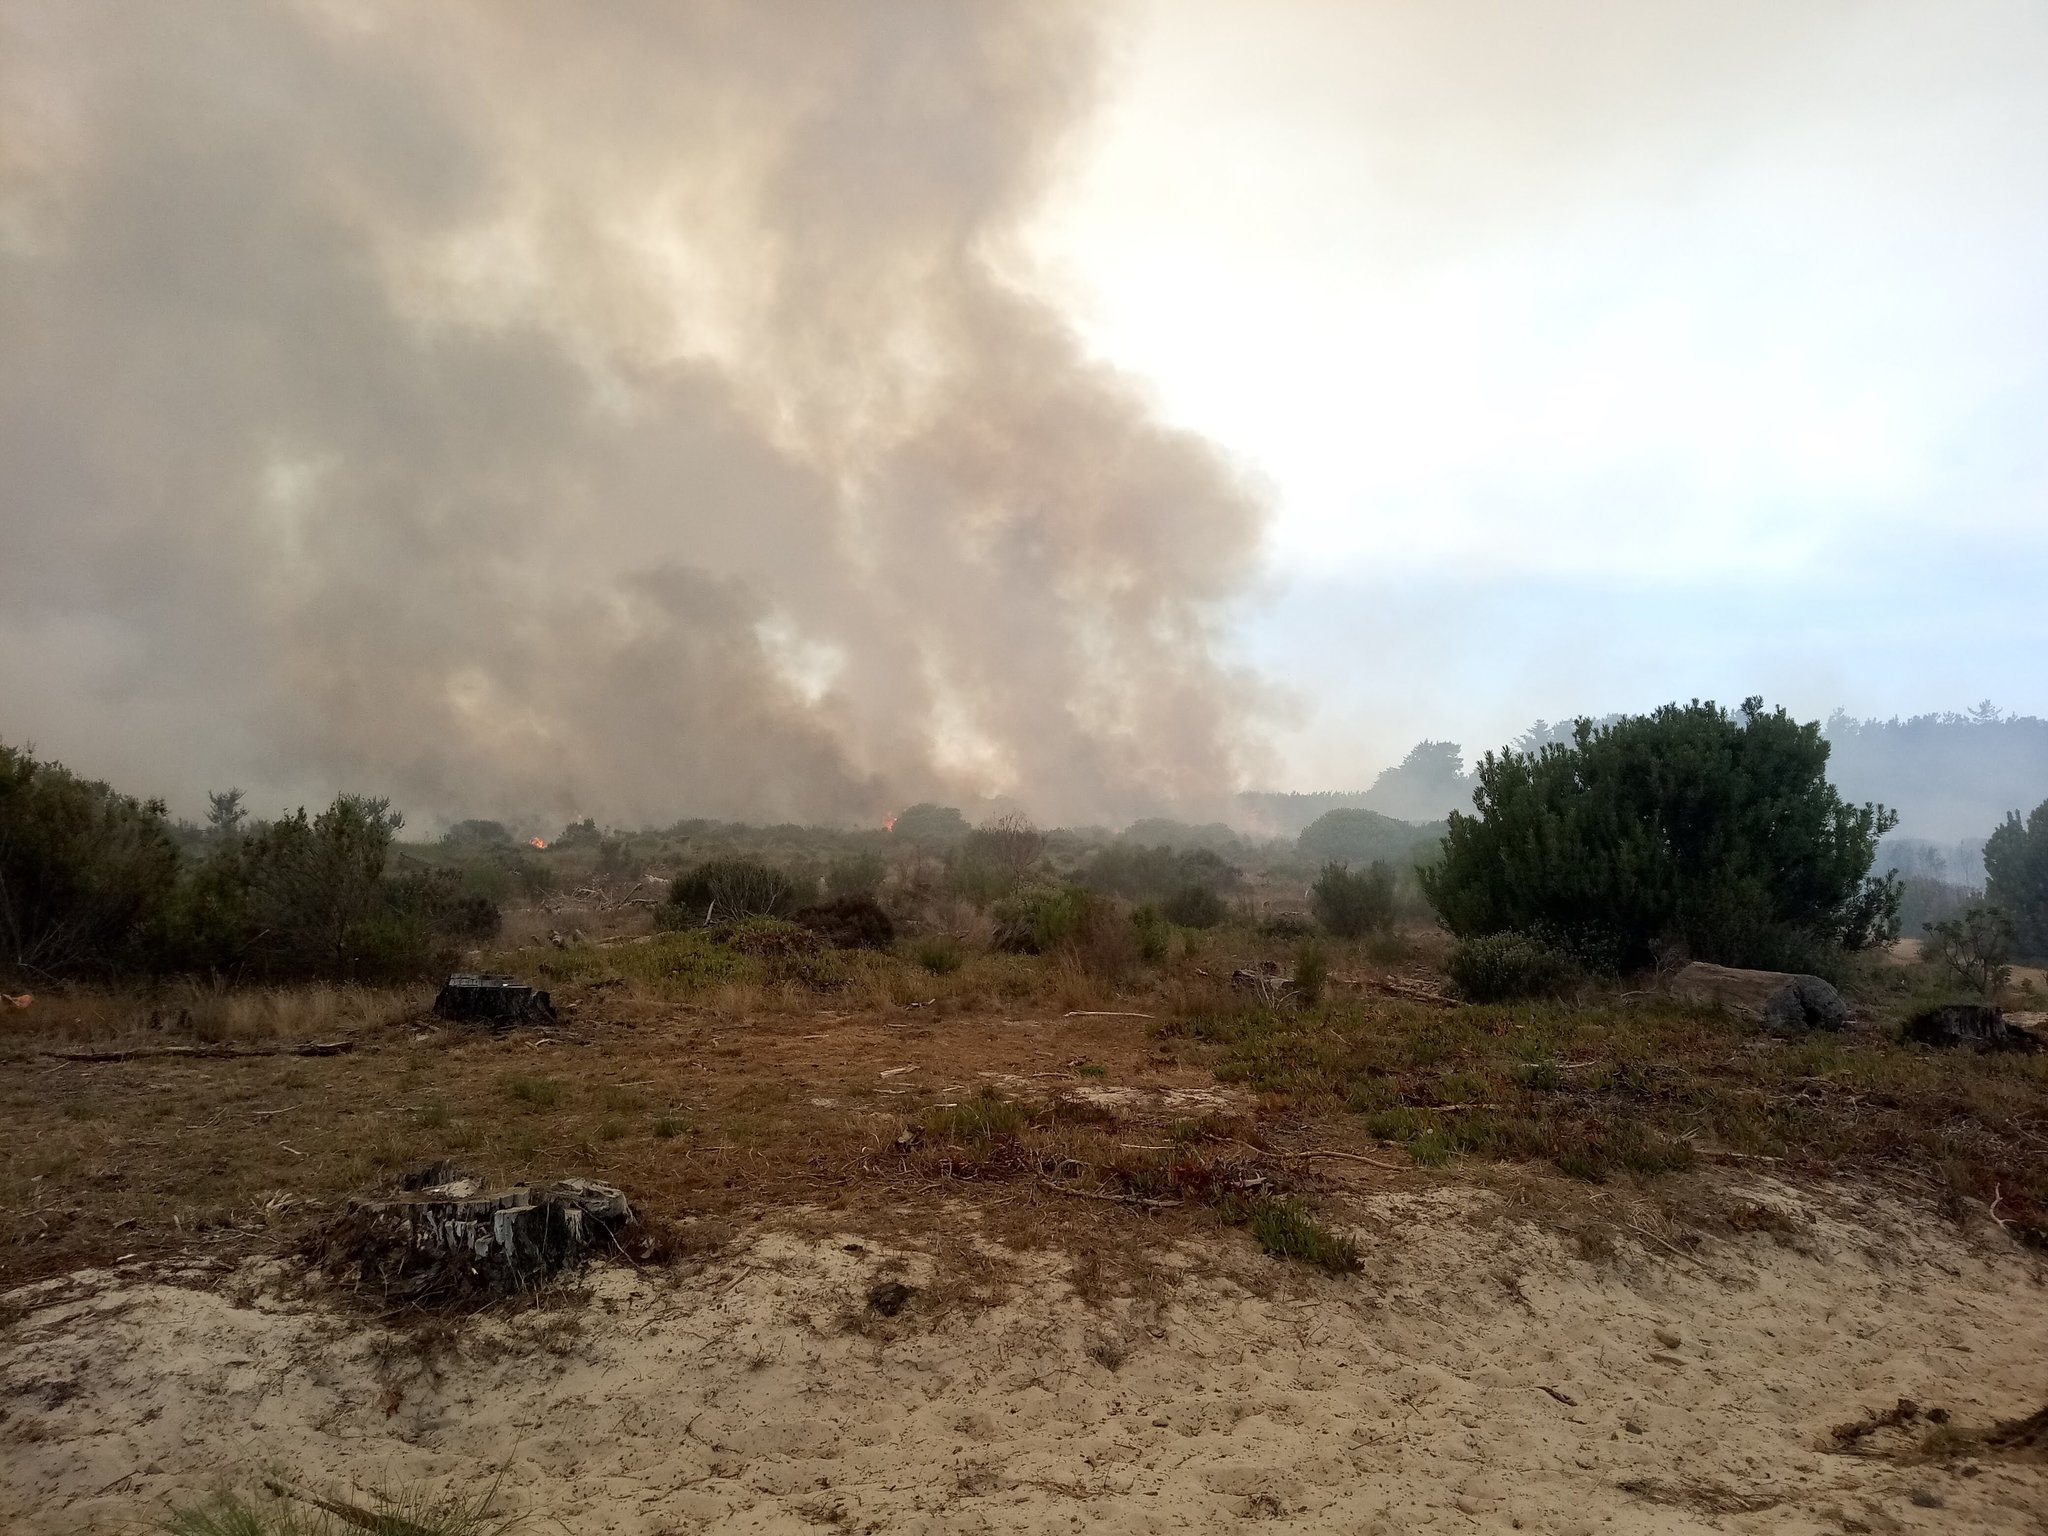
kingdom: Plantae
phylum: Tracheophyta
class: Magnoliopsida
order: Proteales
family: Proteaceae
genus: Protea
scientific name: Protea repens
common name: Sugarbush
